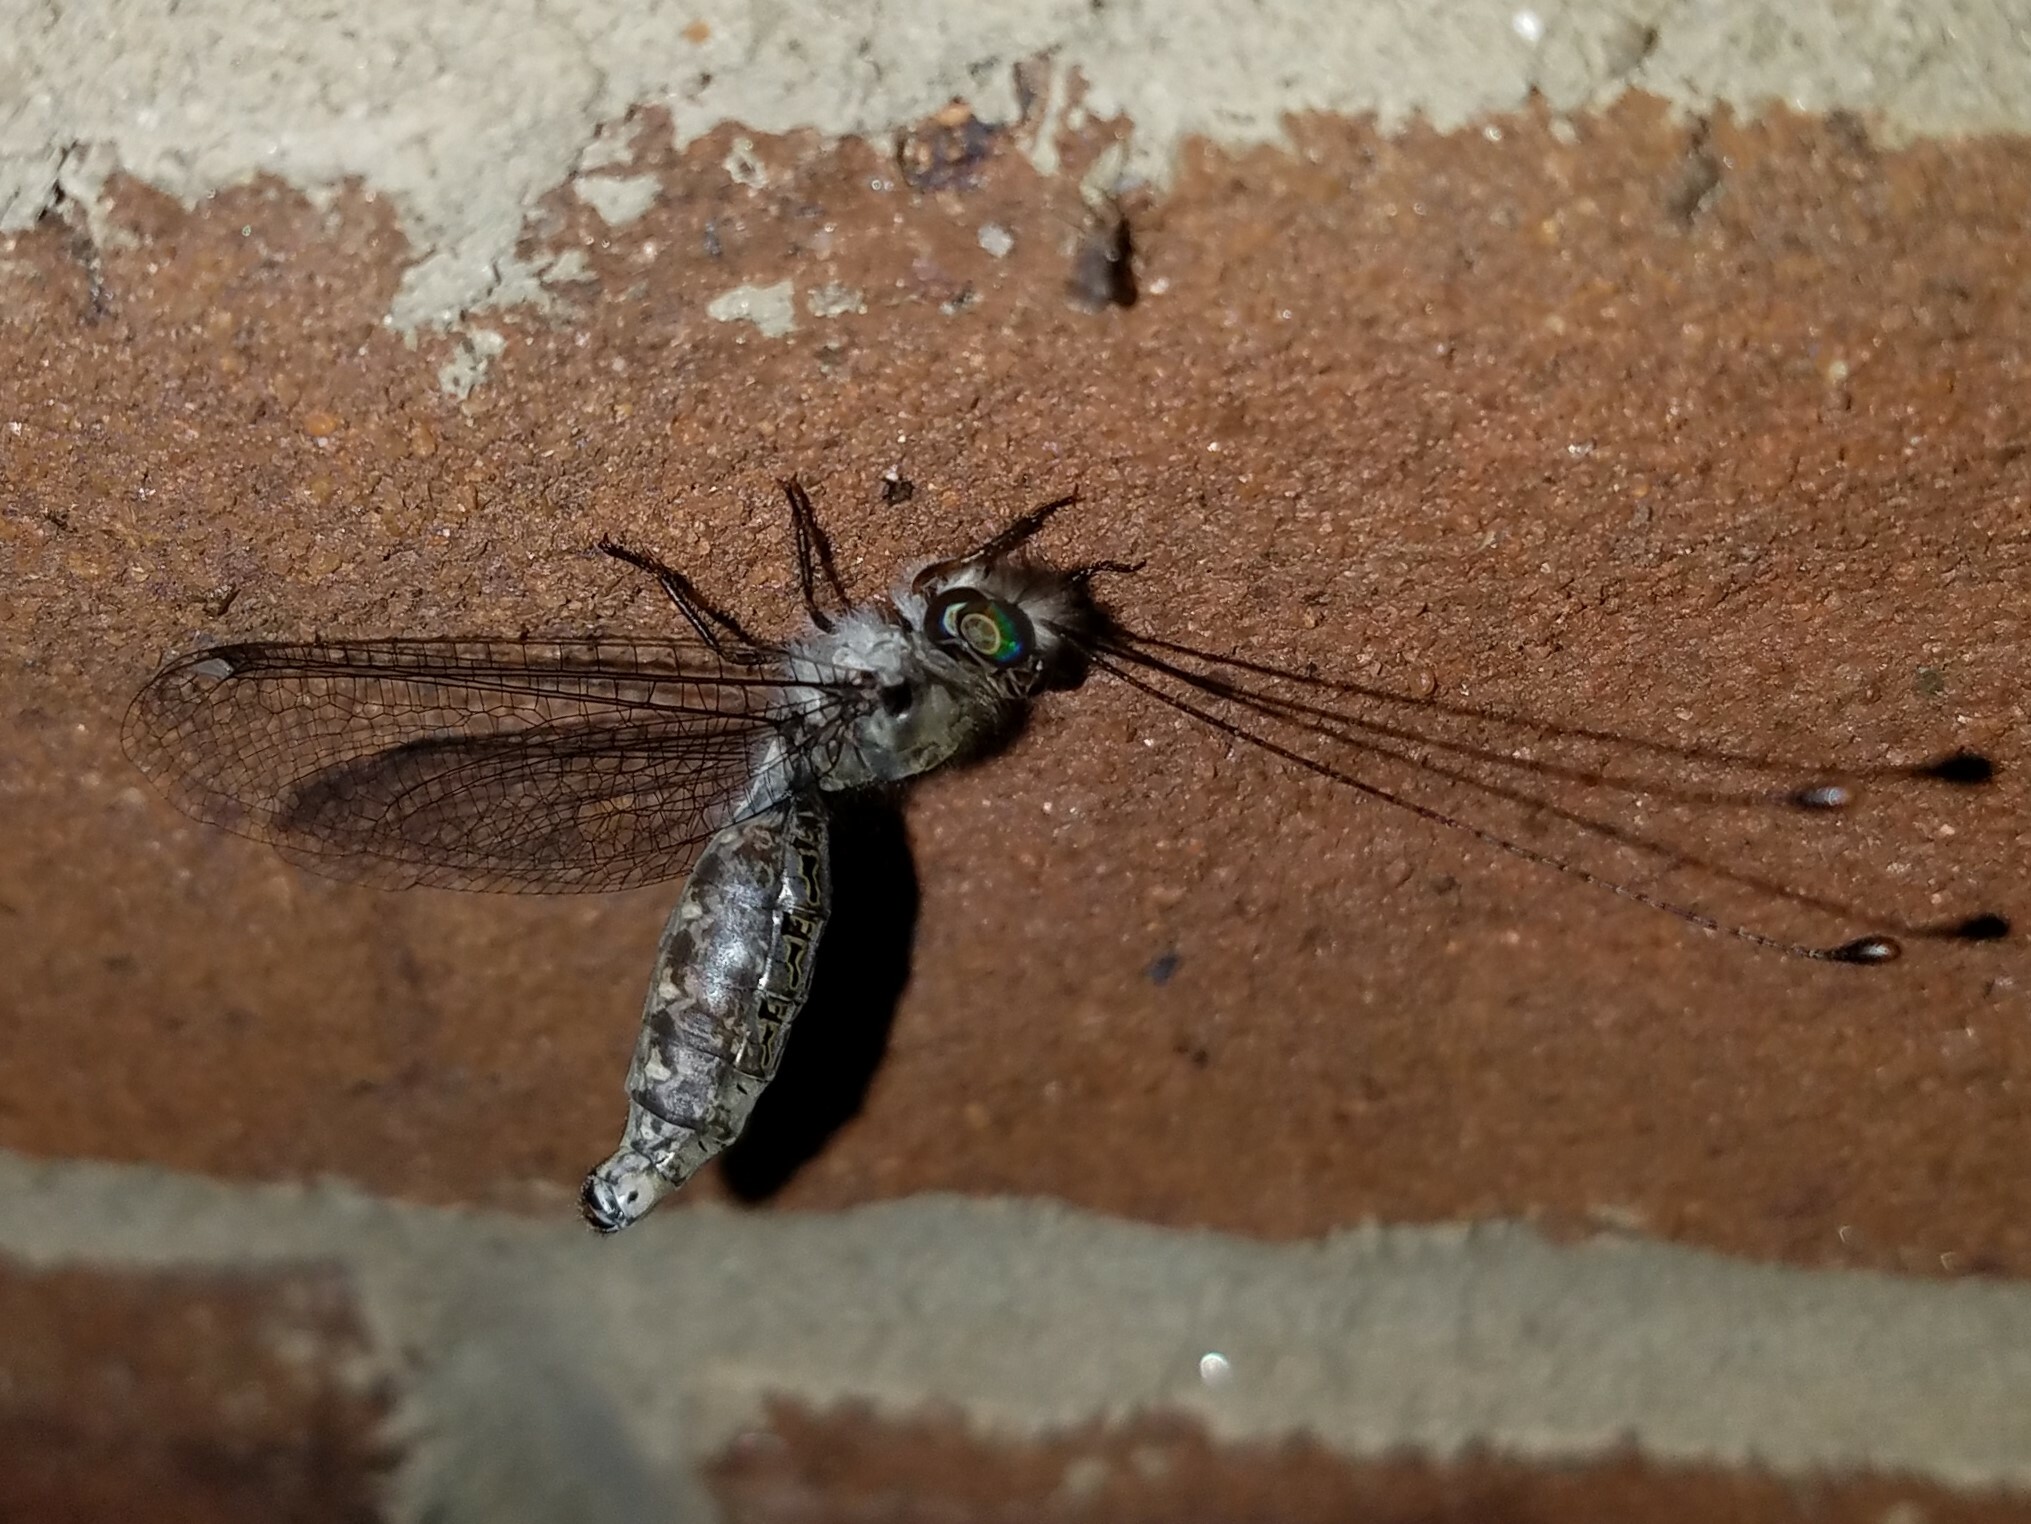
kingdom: Animalia
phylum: Arthropoda
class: Insecta
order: Neuroptera
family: Ascalaphidae
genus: Ululodes
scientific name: Ululodes floridanus
